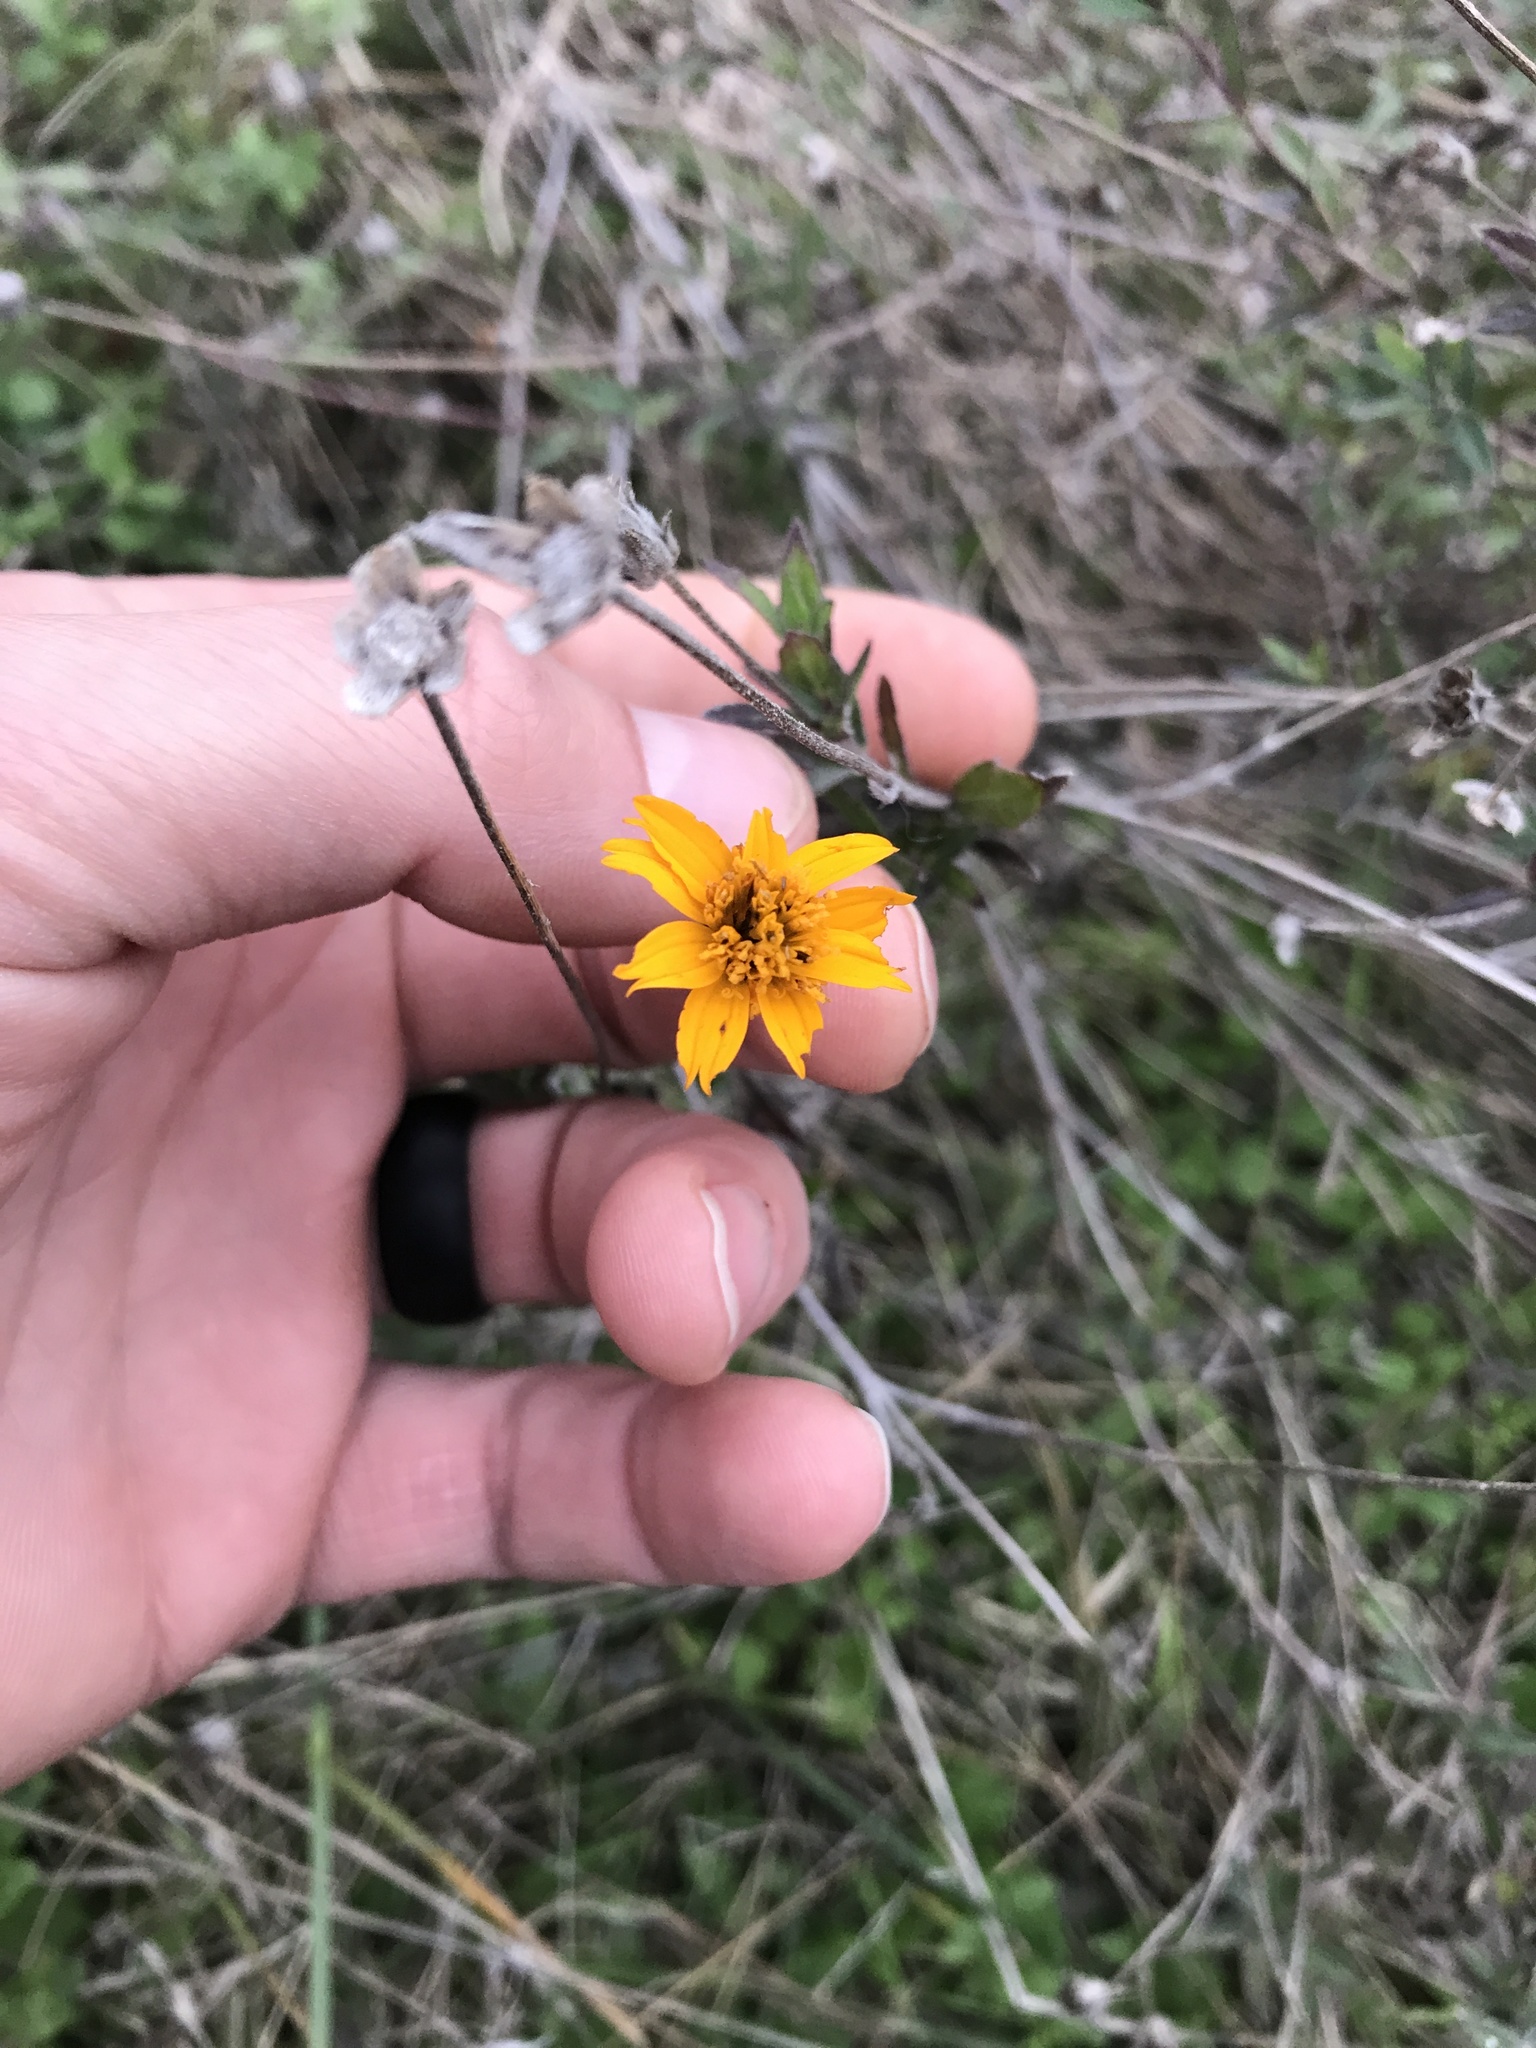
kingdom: Plantae
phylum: Tracheophyta
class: Magnoliopsida
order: Asterales
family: Asteraceae
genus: Wedelia
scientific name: Wedelia acapulcensis
